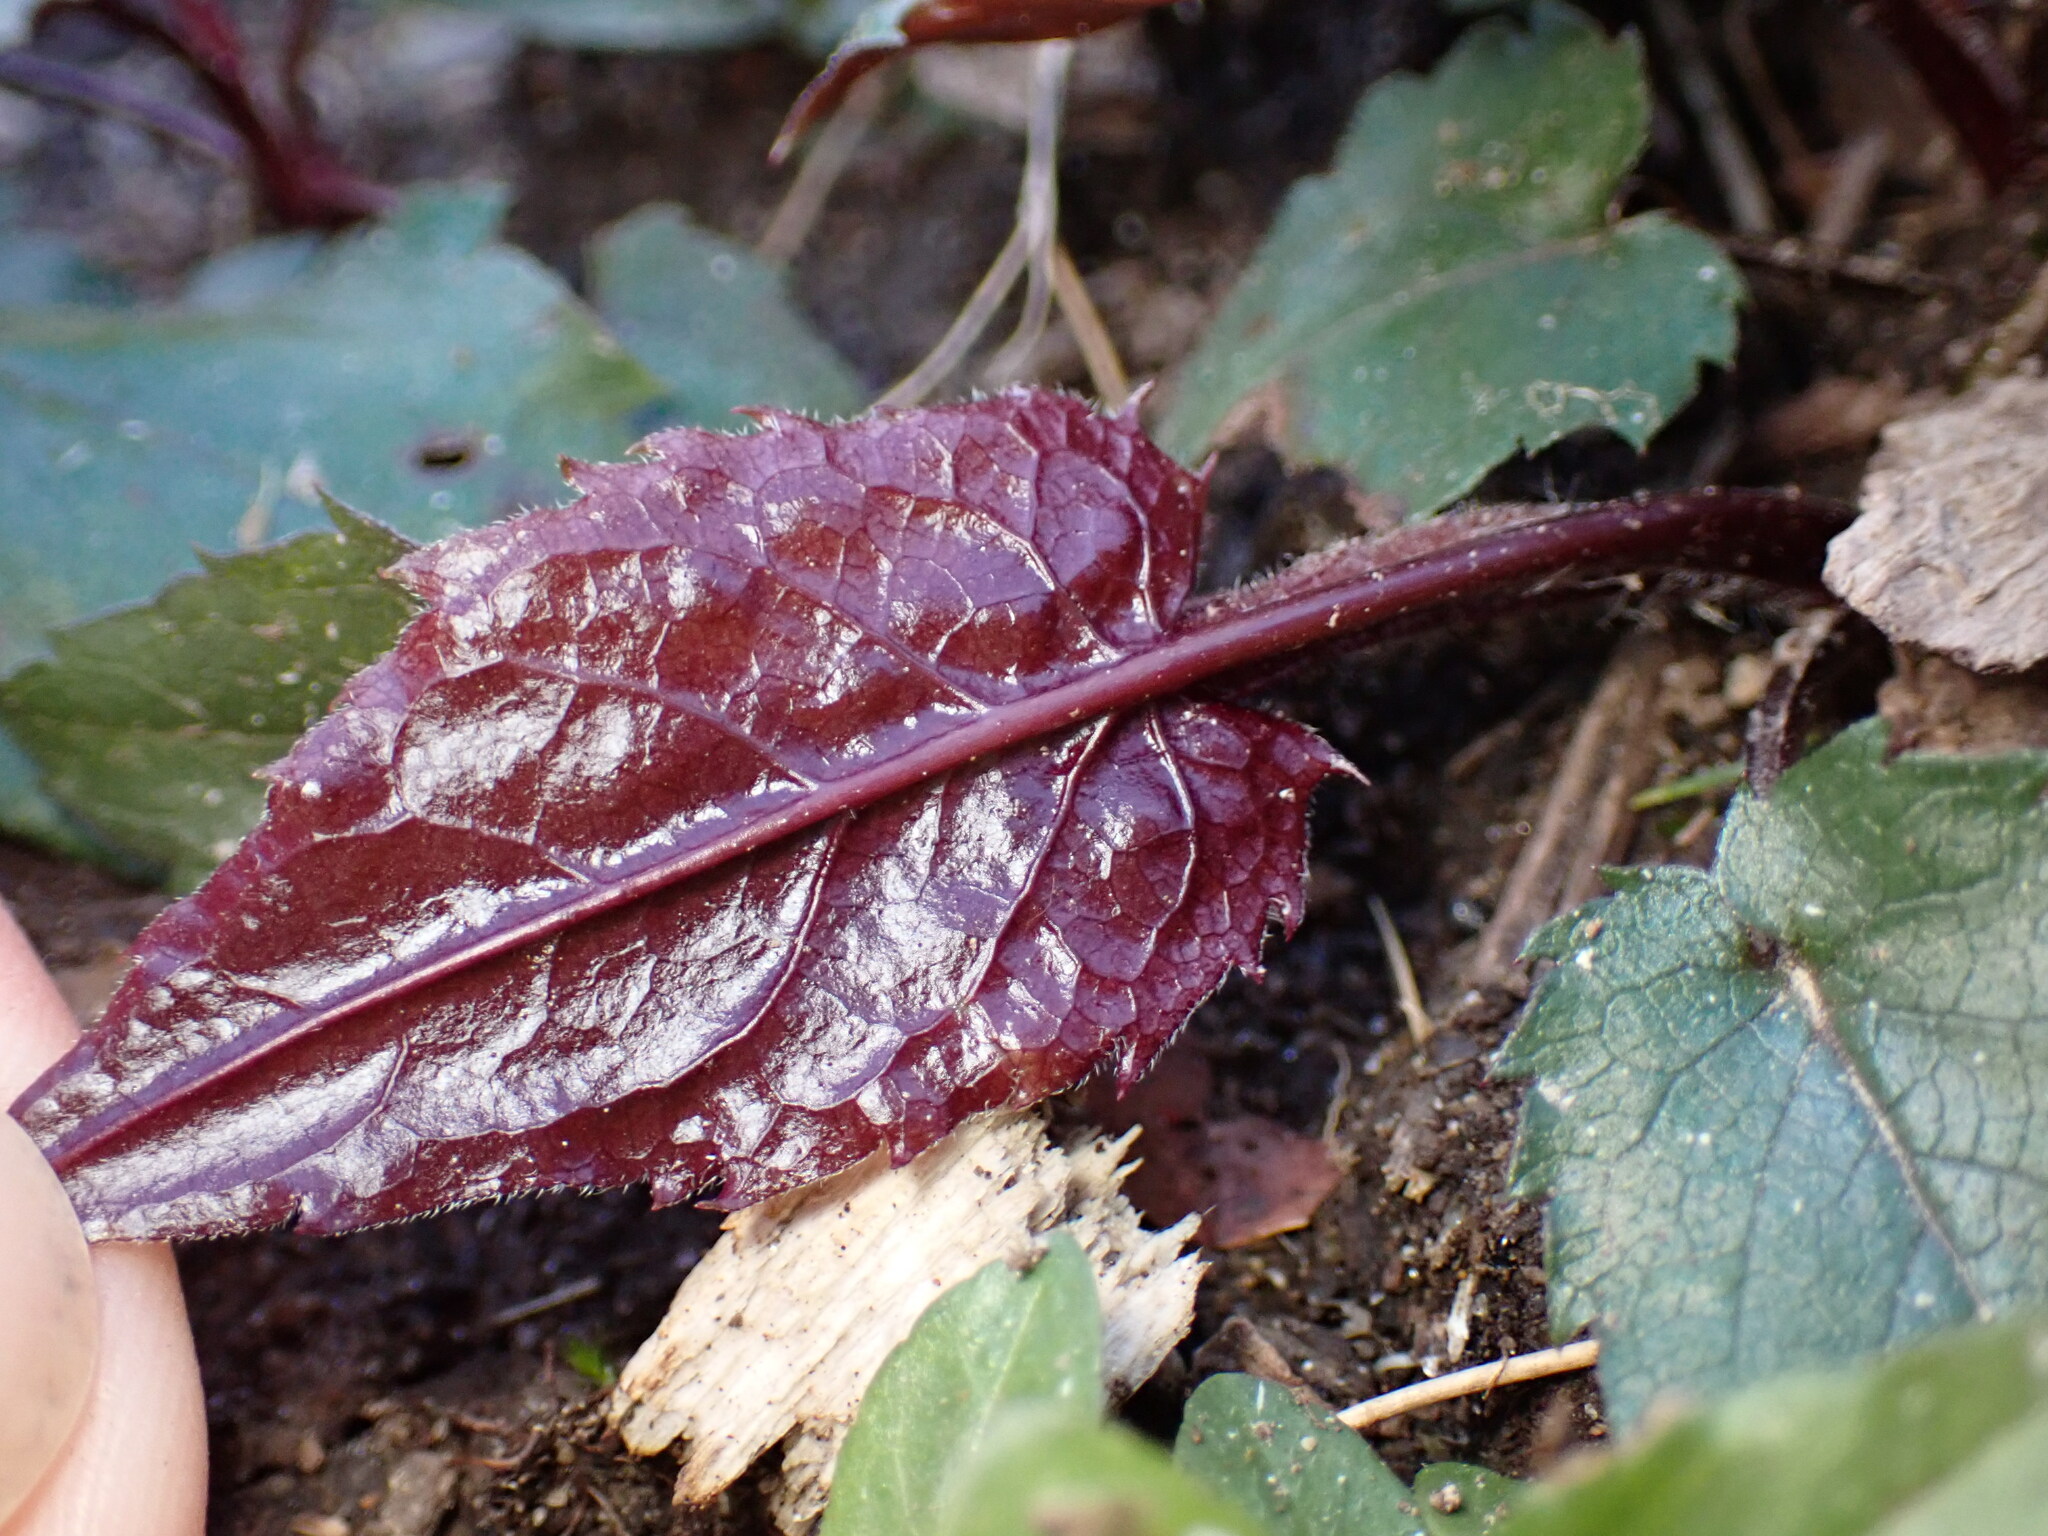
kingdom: Plantae
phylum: Tracheophyta
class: Magnoliopsida
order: Asterales
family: Asteraceae
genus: Eurybia
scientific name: Eurybia divaricata
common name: White wood aster
